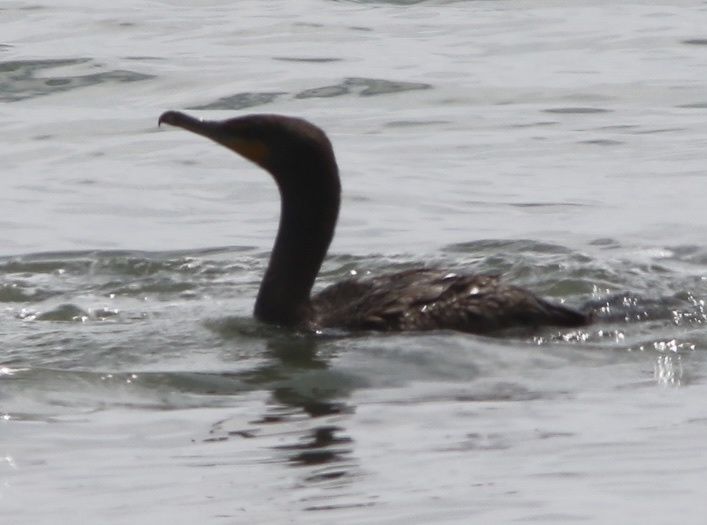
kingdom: Animalia
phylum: Chordata
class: Aves
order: Suliformes
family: Phalacrocoracidae
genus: Phalacrocorax
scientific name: Phalacrocorax auritus
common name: Double-crested cormorant
